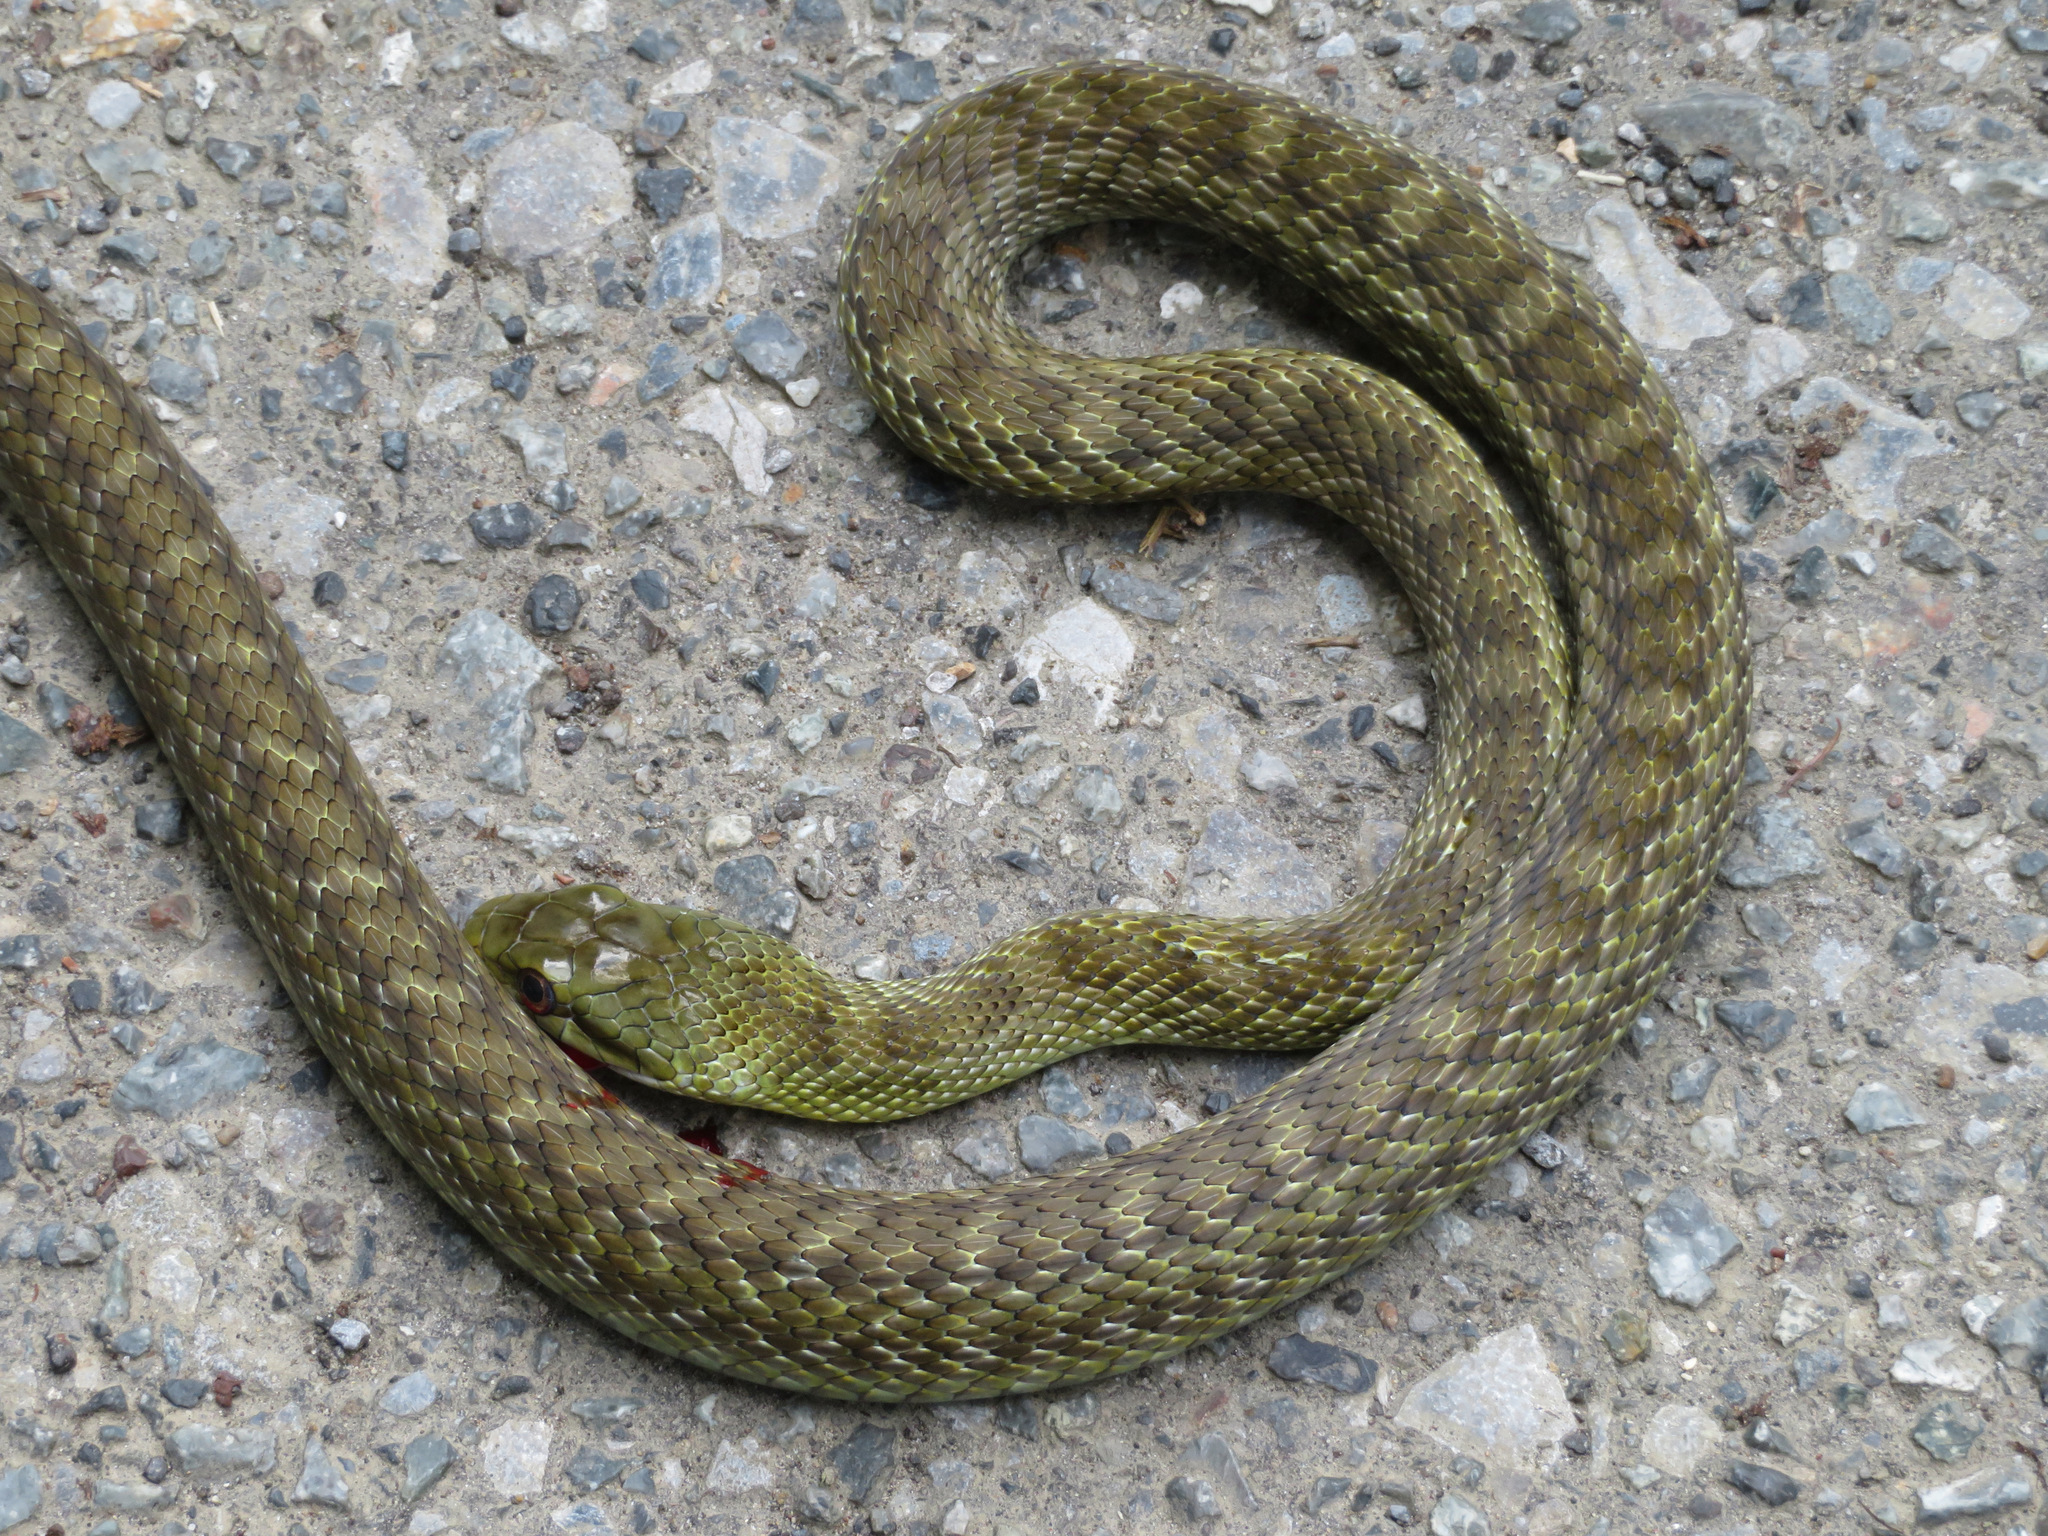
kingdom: Animalia
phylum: Chordata
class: Squamata
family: Colubridae
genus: Elaphe
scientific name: Elaphe climacophora
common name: Japanese ratsnake
